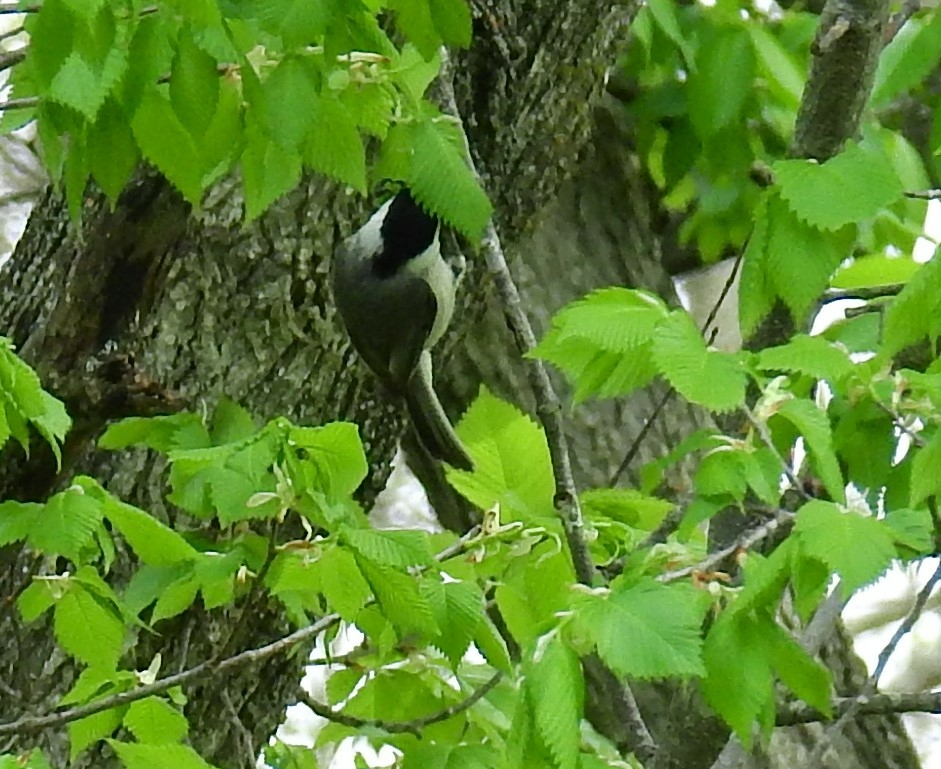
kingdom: Animalia
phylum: Chordata
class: Aves
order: Passeriformes
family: Paridae
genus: Poecile
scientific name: Poecile carolinensis
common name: Carolina chickadee
